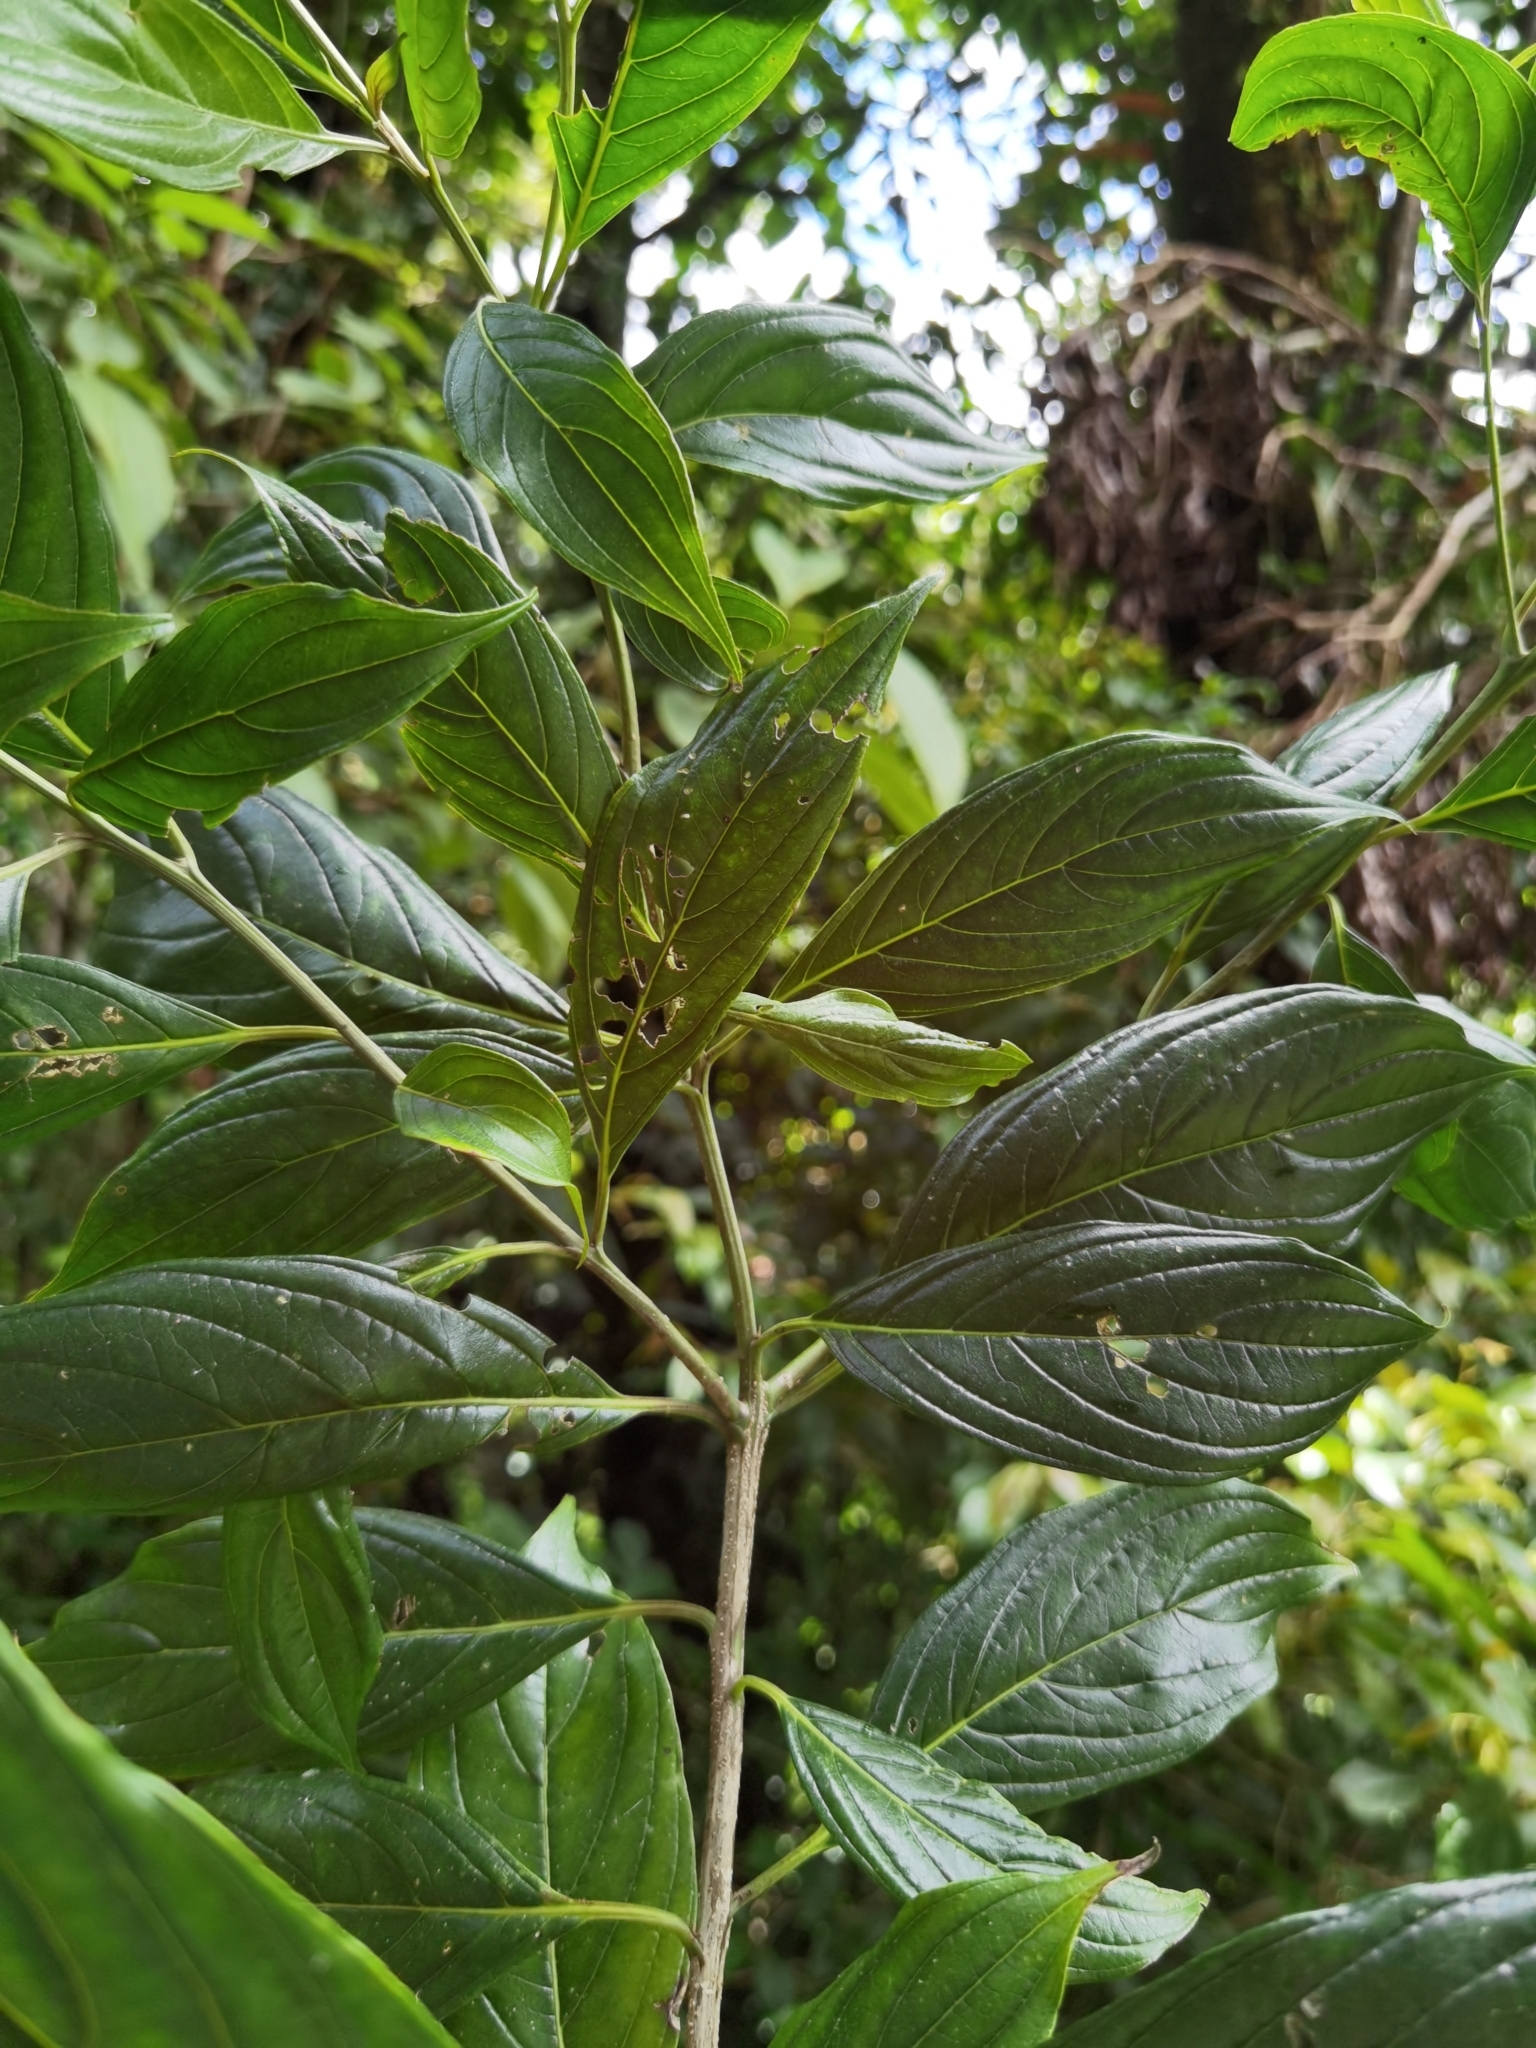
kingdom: Plantae
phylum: Tracheophyta
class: Magnoliopsida
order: Cornales
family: Cornaceae
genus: Cornus
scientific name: Cornus peruviana
